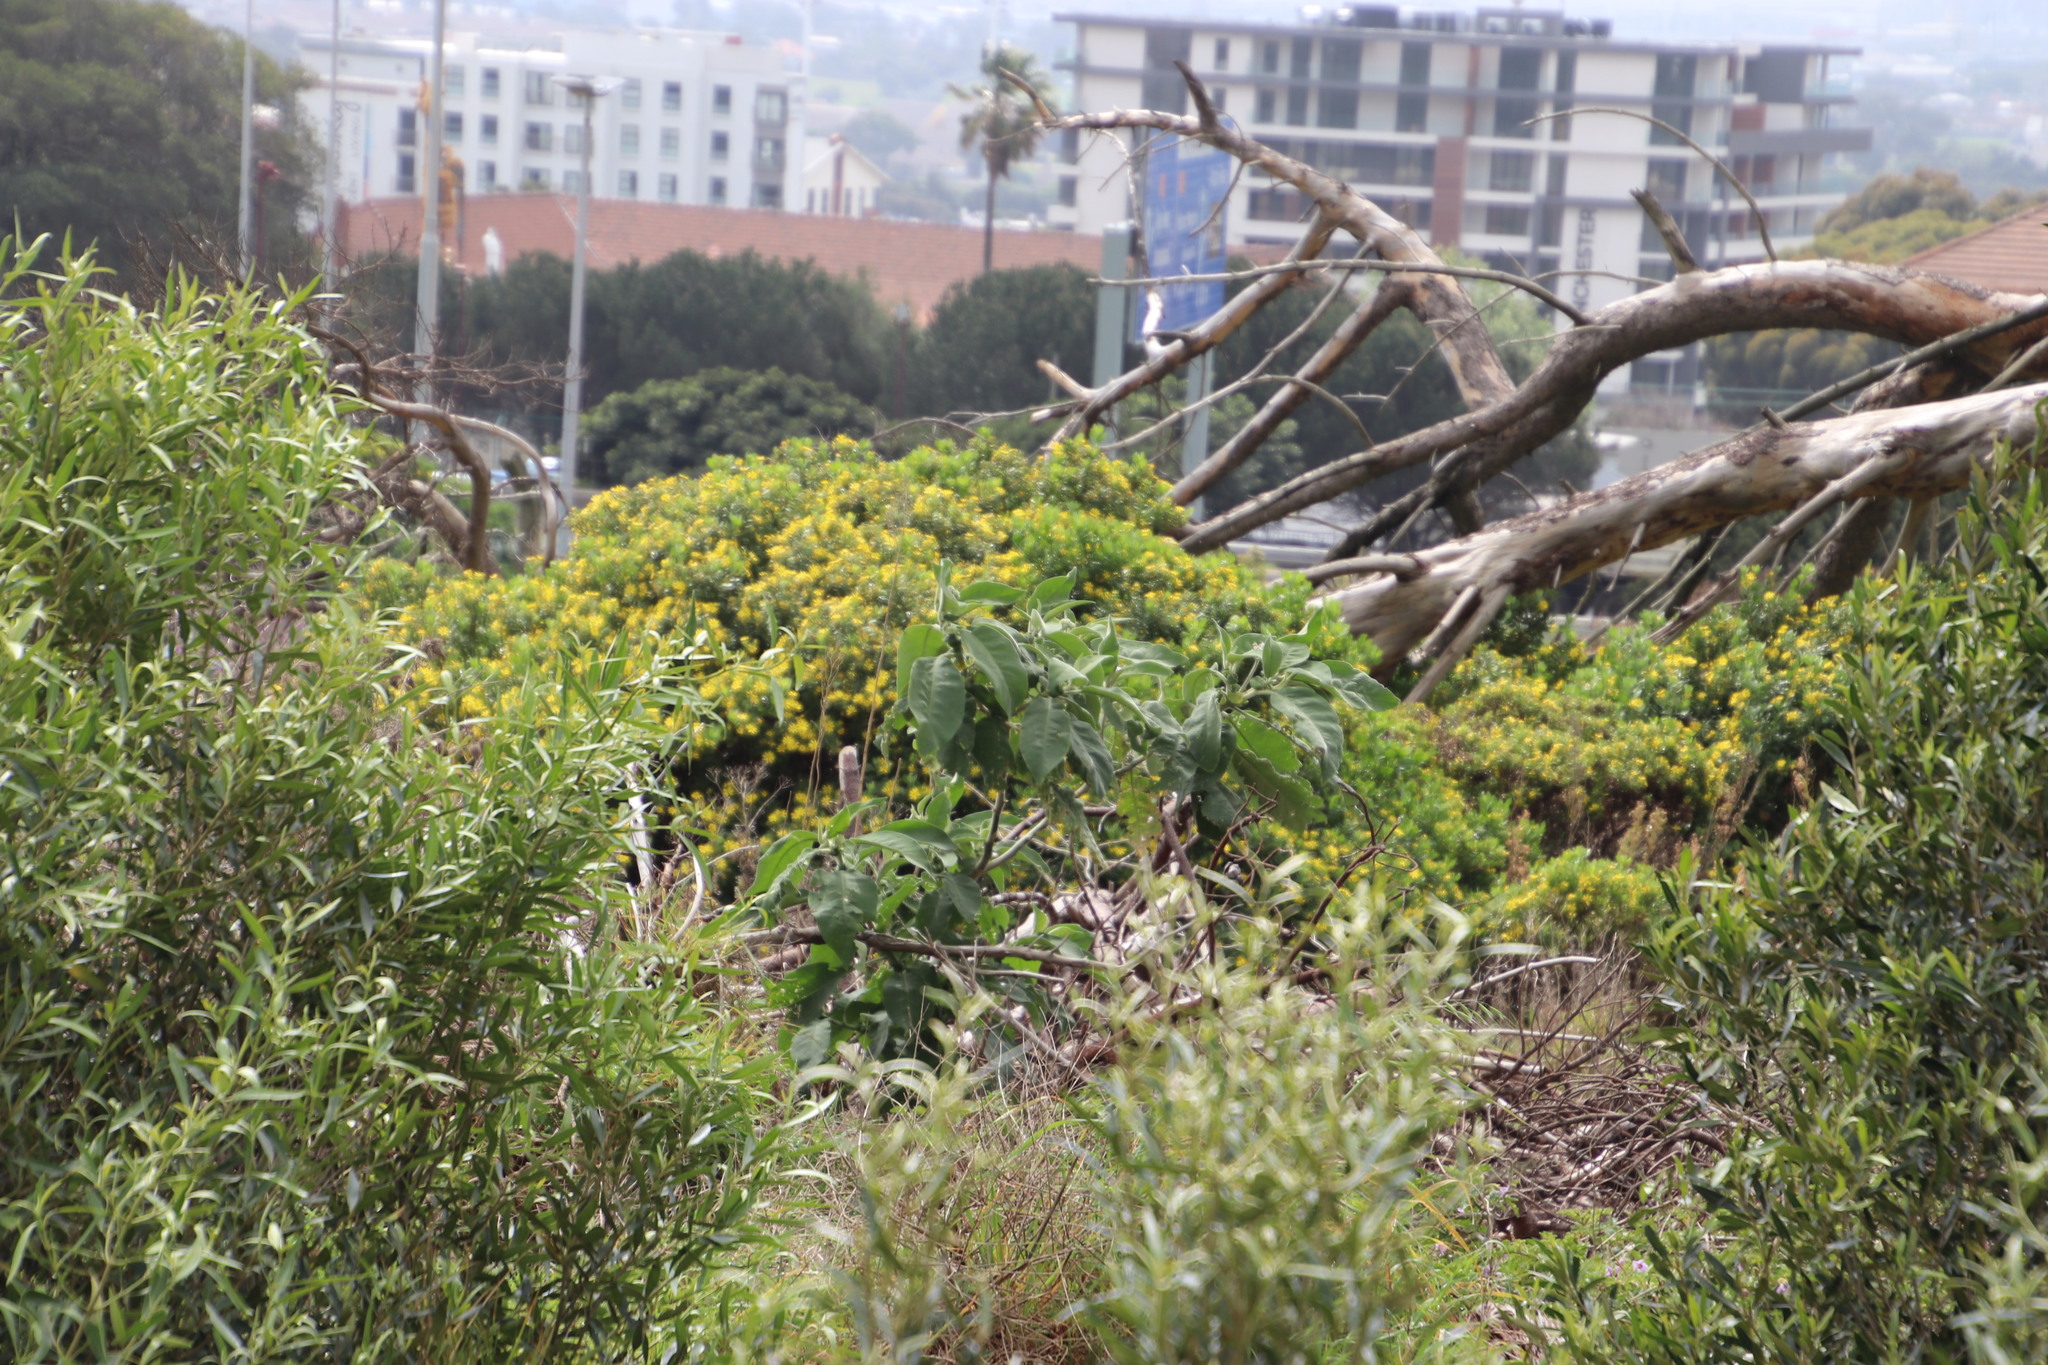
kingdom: Plantae
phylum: Tracheophyta
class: Magnoliopsida
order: Solanales
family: Solanaceae
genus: Solanum
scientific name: Solanum mauritianum
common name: Earleaf nightshade
